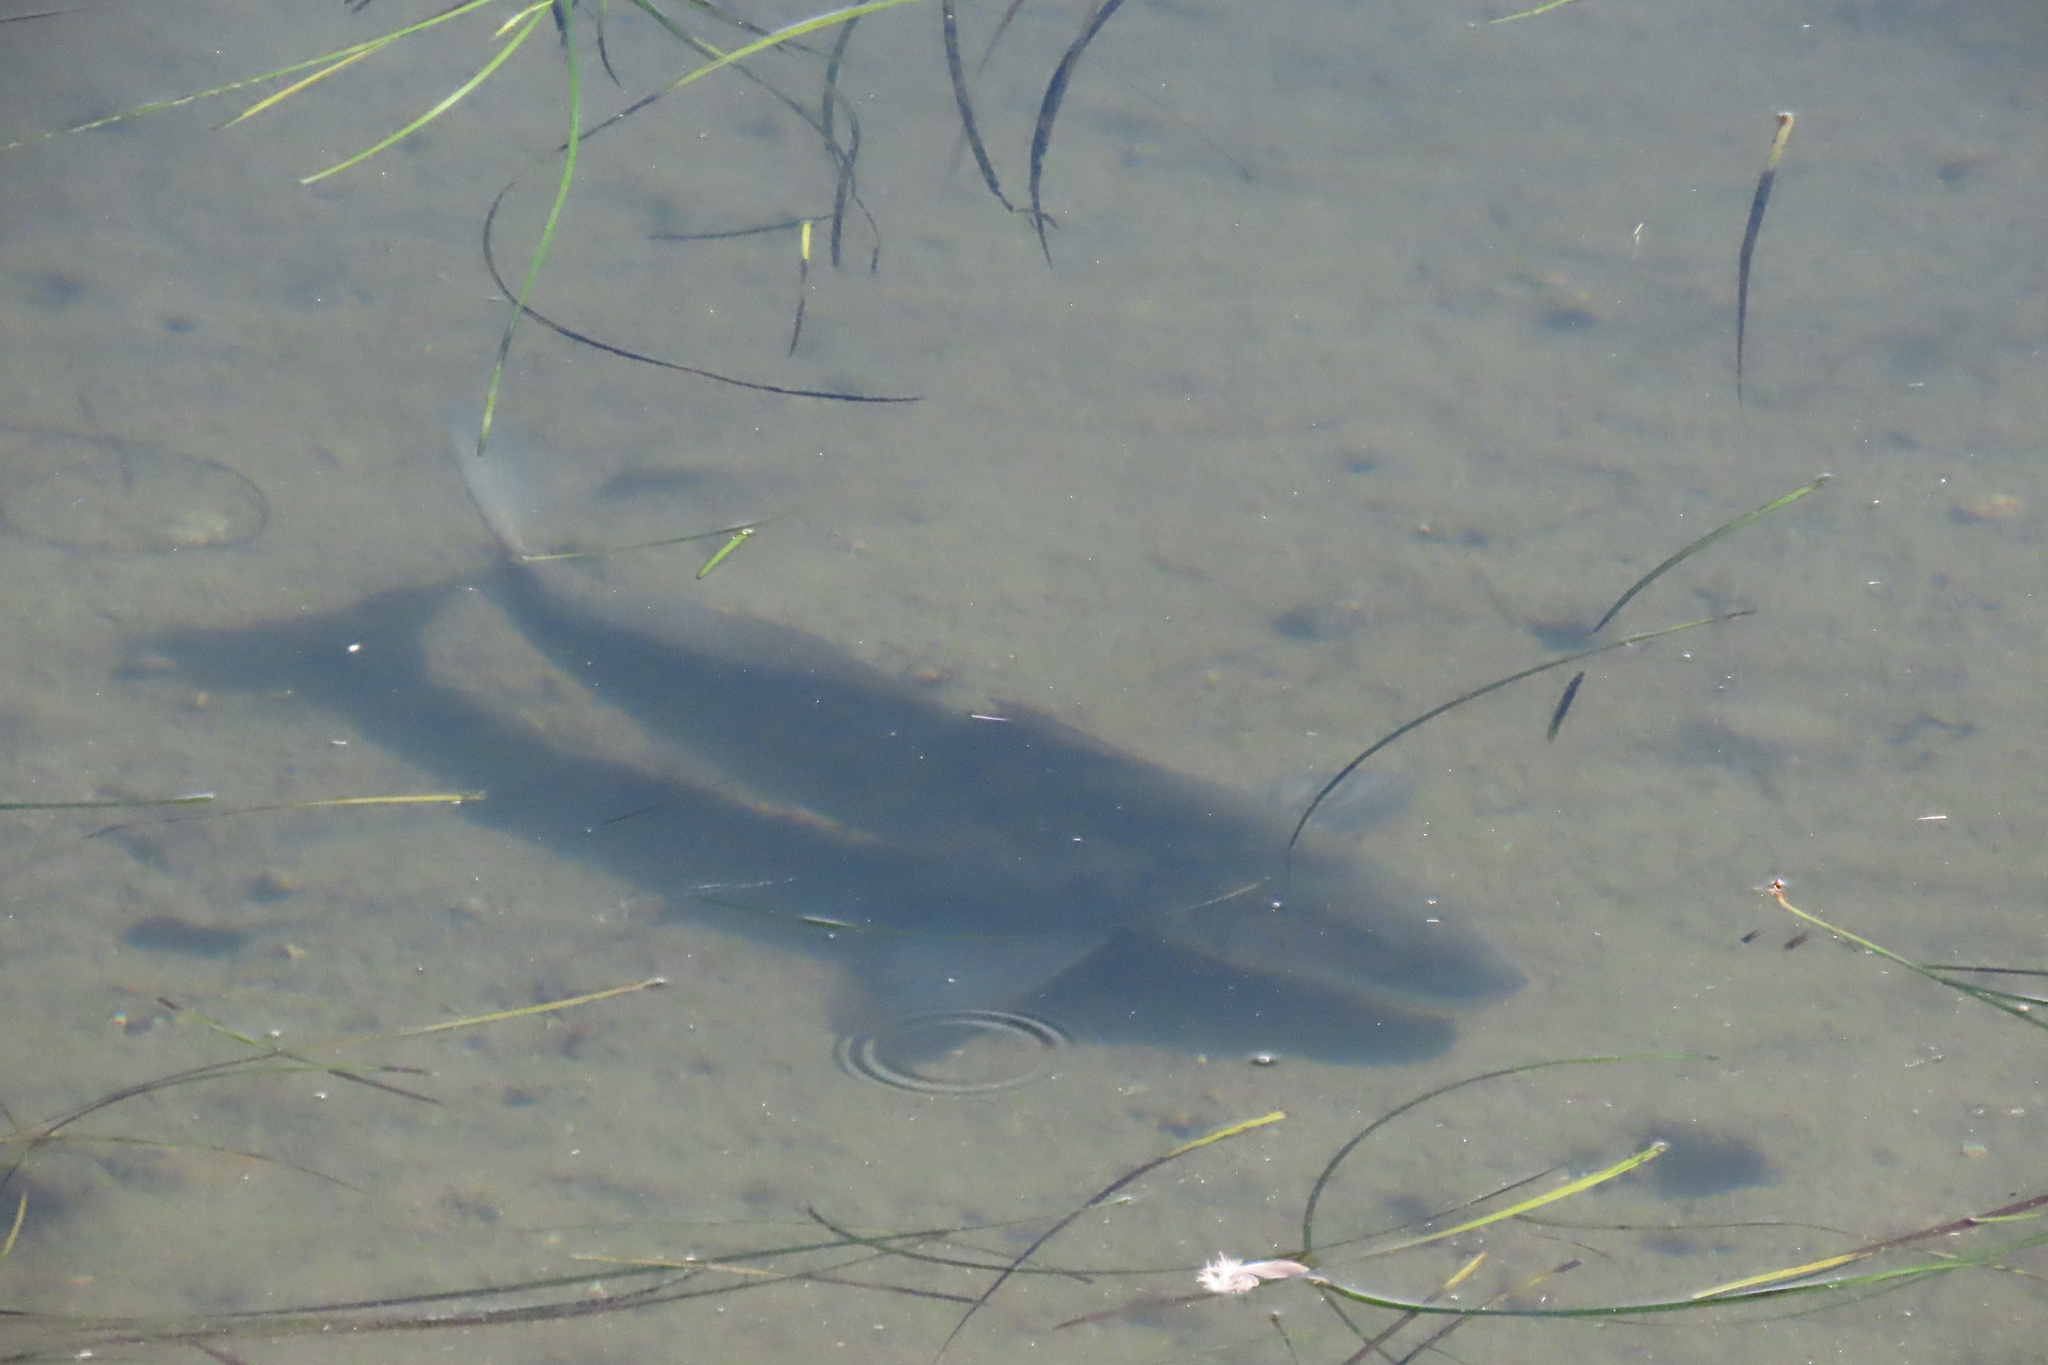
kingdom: Animalia
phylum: Chordata
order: Perciformes
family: Sciaenidae
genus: Menticirrhus
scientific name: Menticirrhus undulatus
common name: California corbina
